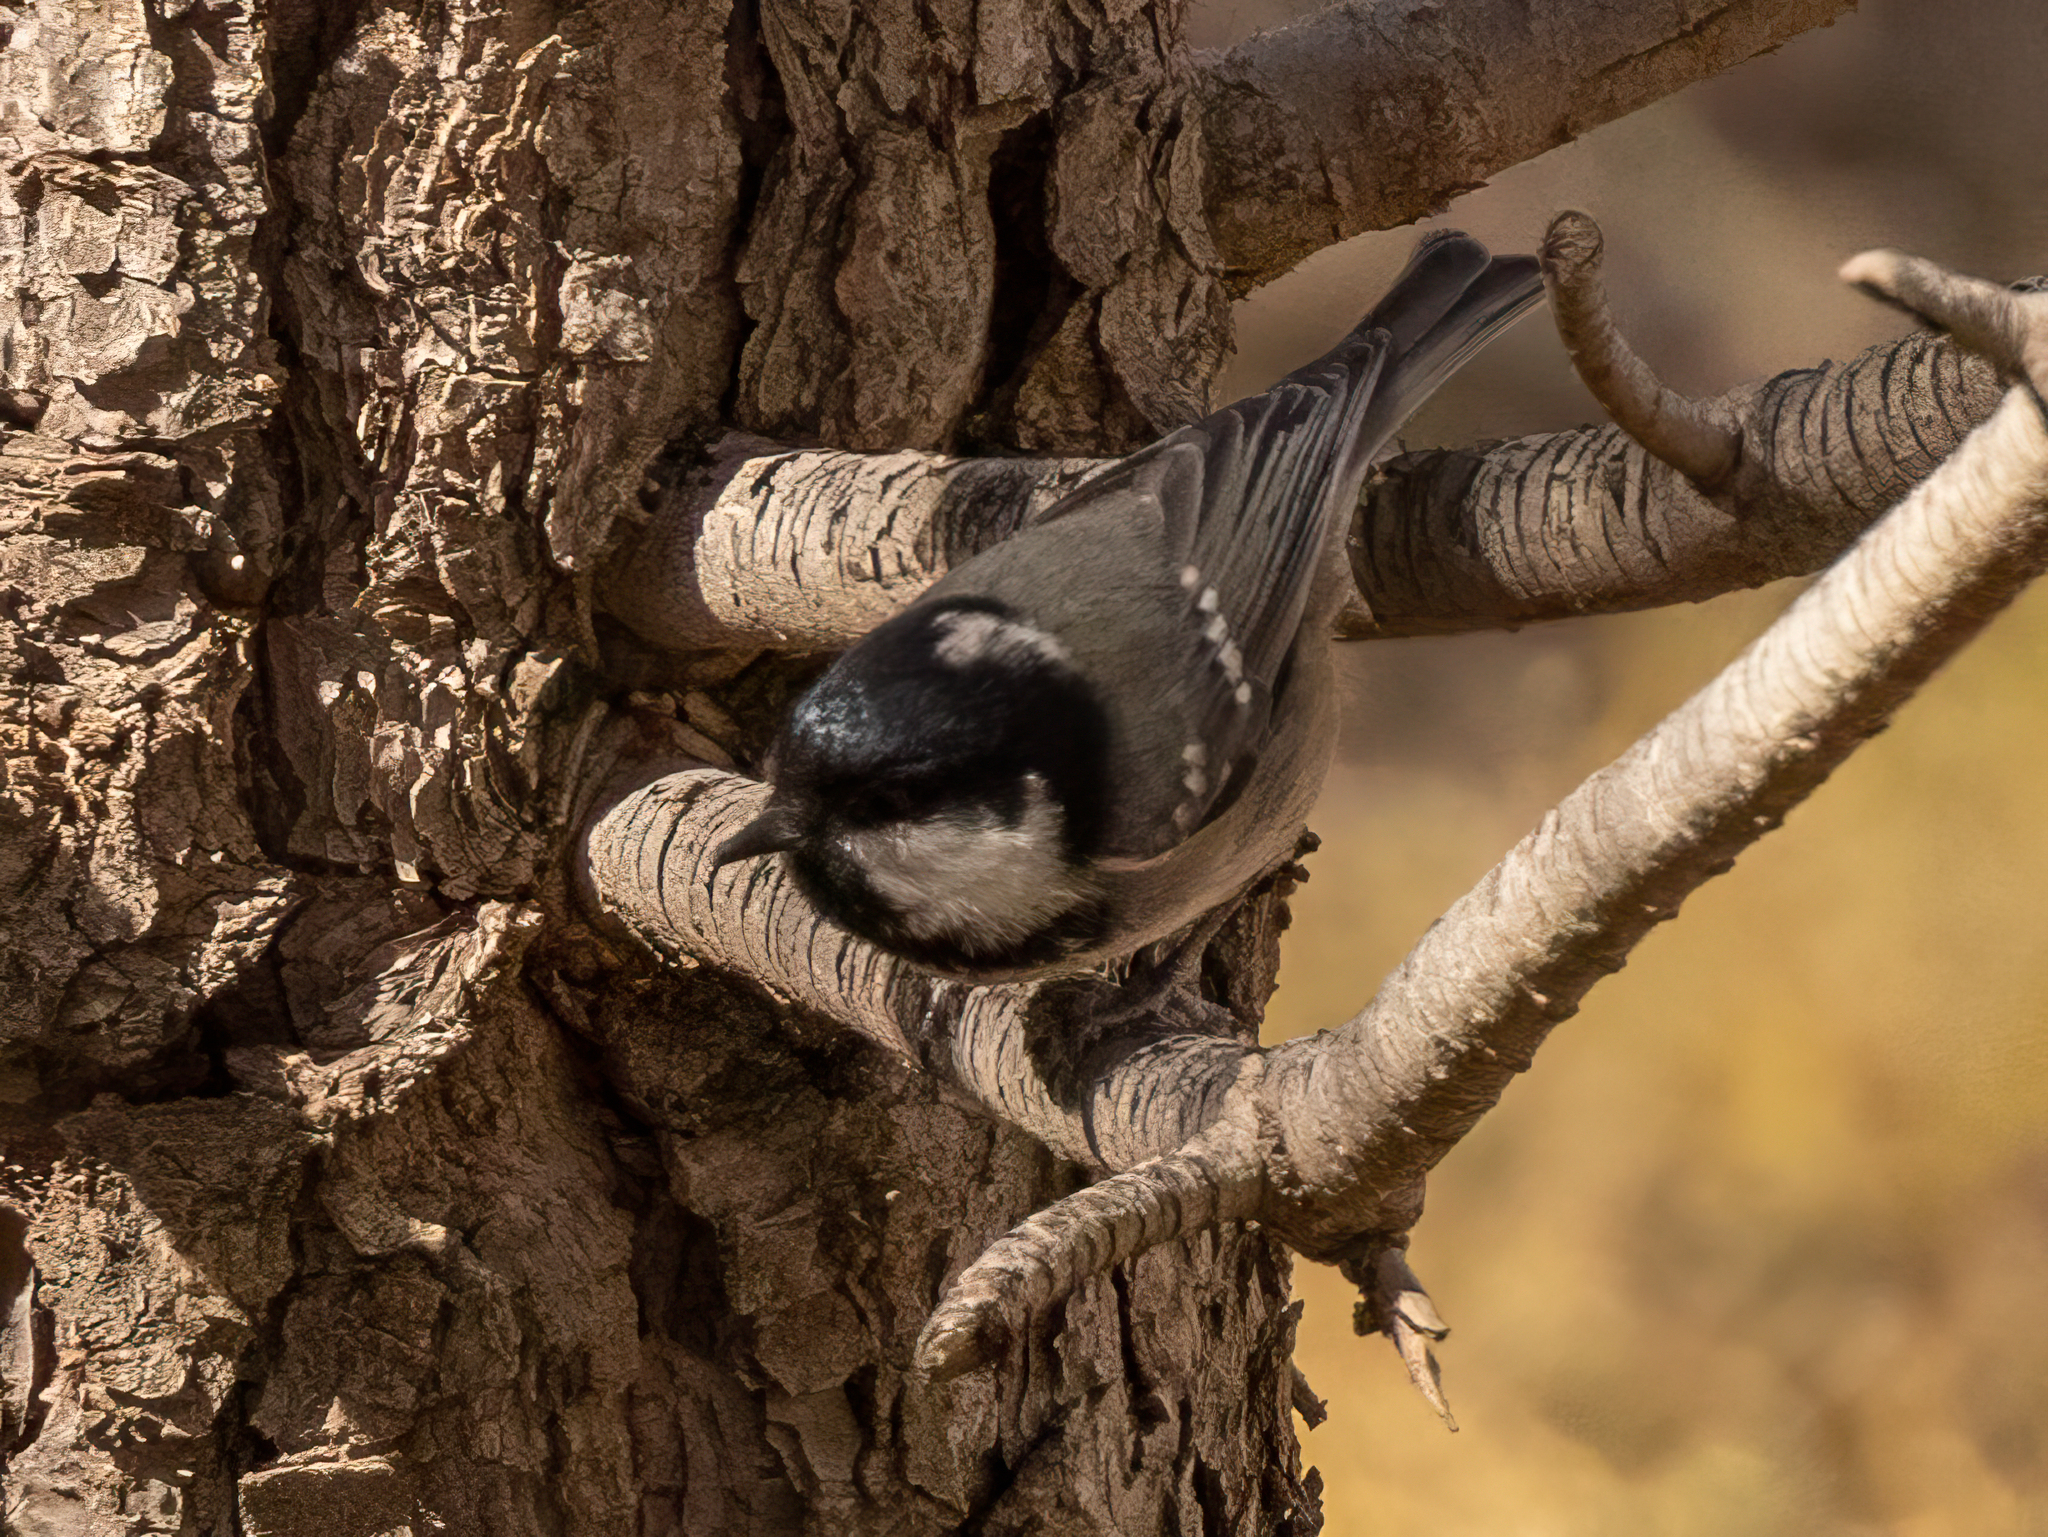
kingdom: Animalia
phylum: Chordata
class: Aves
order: Passeriformes
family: Paridae
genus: Periparus
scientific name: Periparus ater
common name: Coal tit
